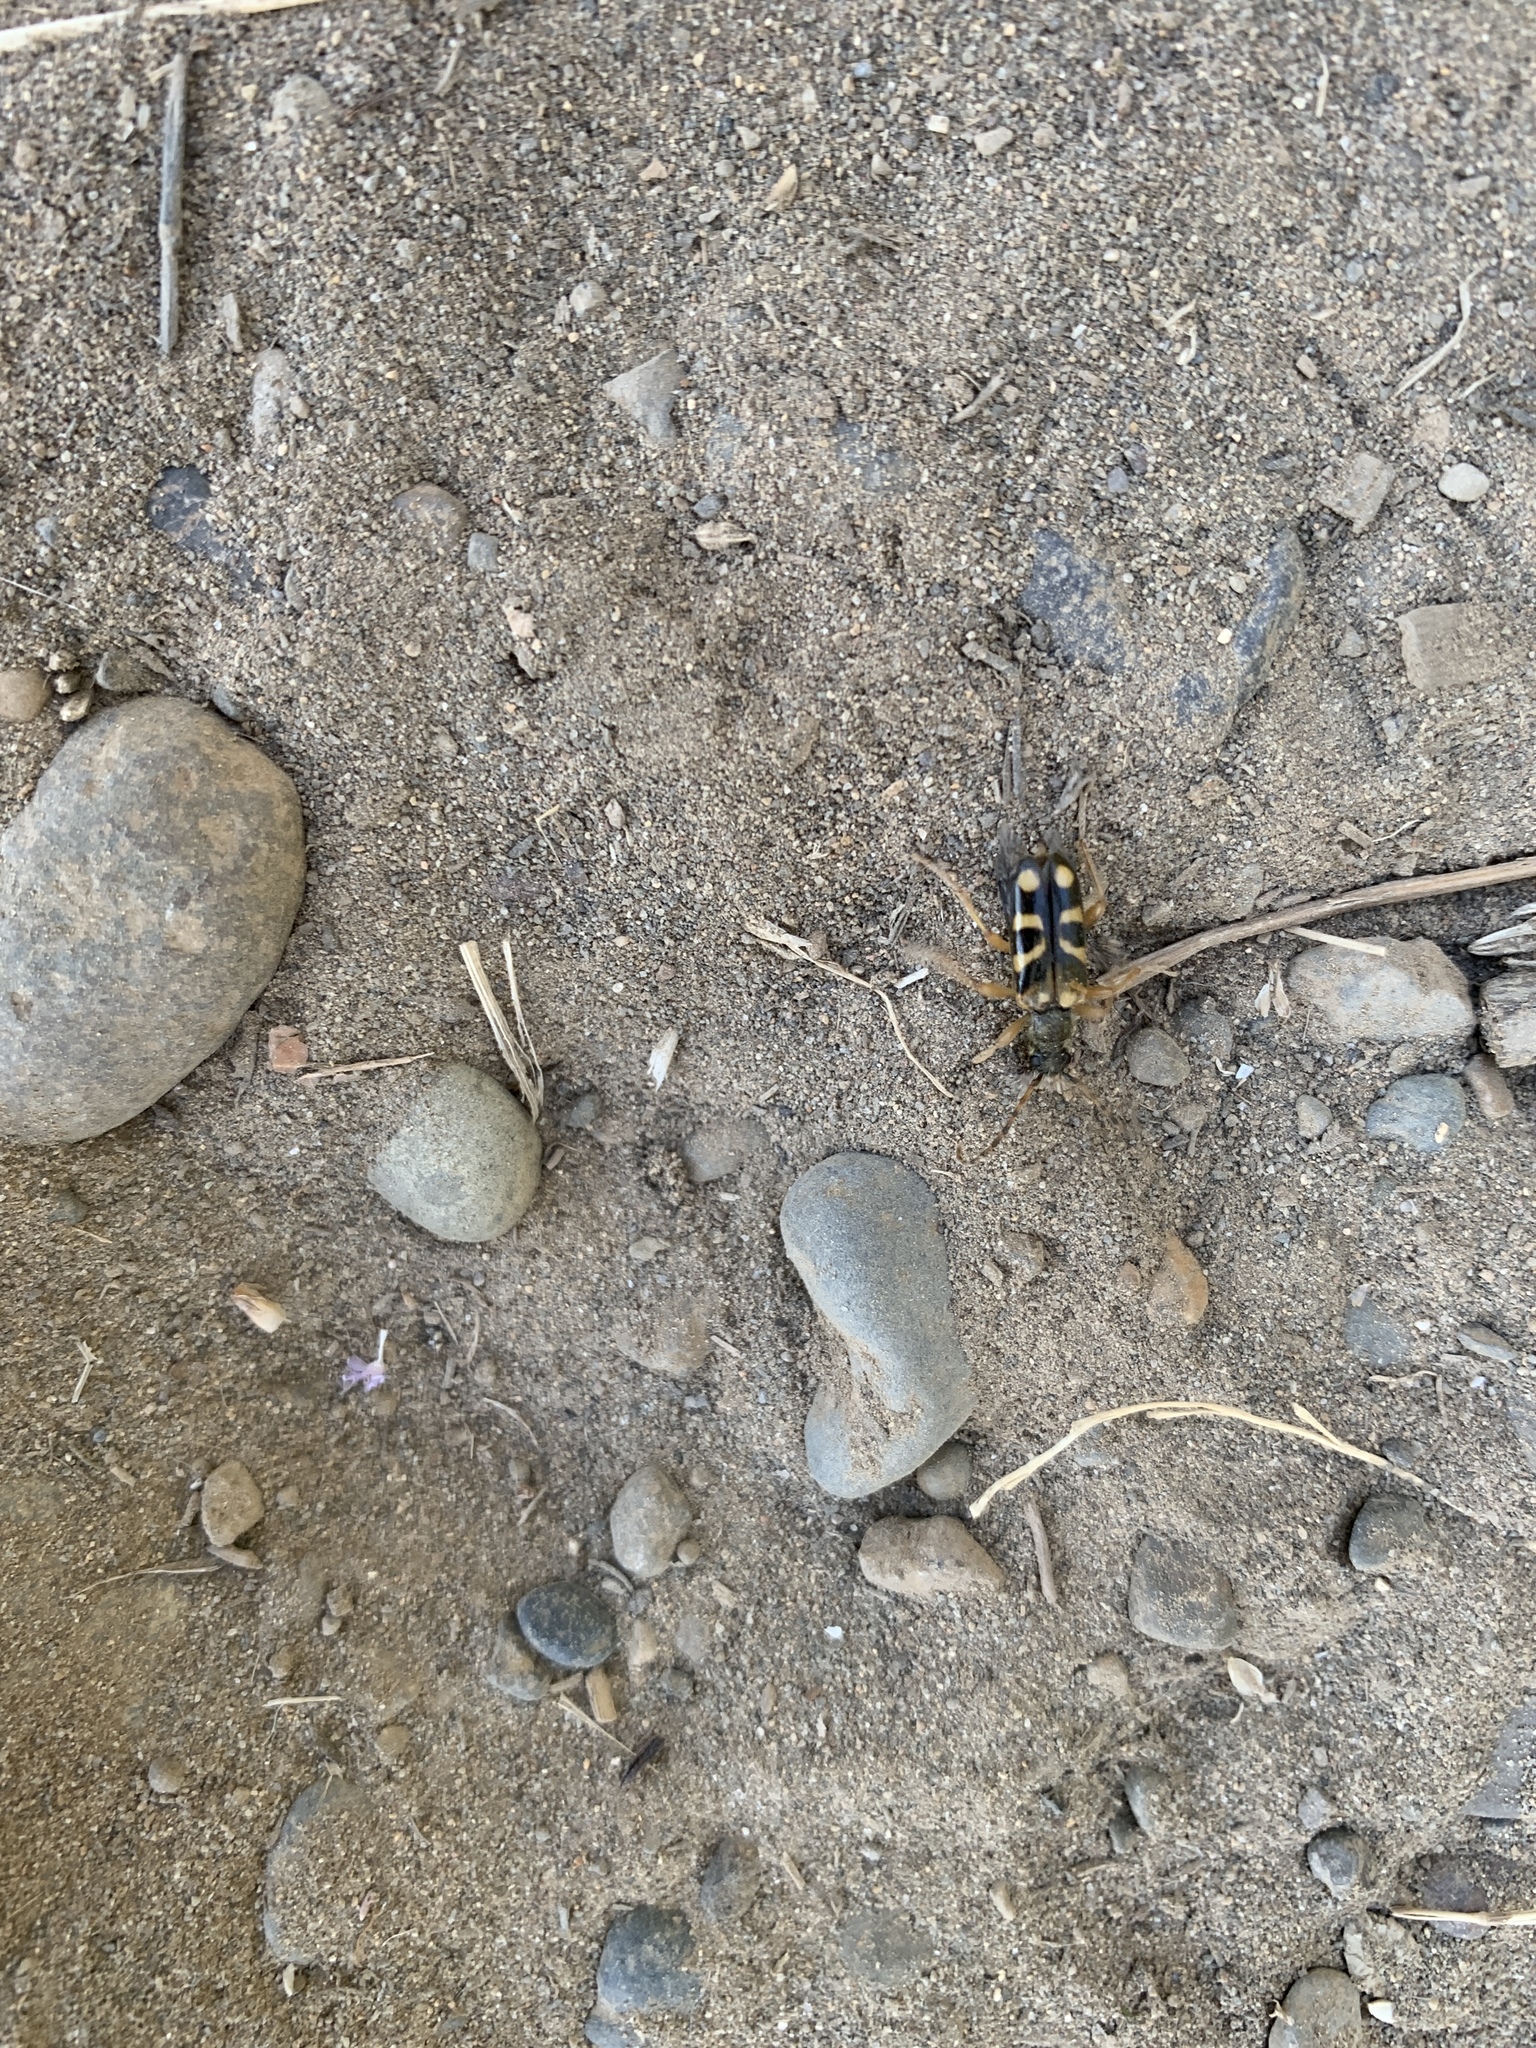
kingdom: Animalia
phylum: Arthropoda
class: Insecta
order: Coleoptera
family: Cerambycidae
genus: Xestoleptura
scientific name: Xestoleptura crassicornis
